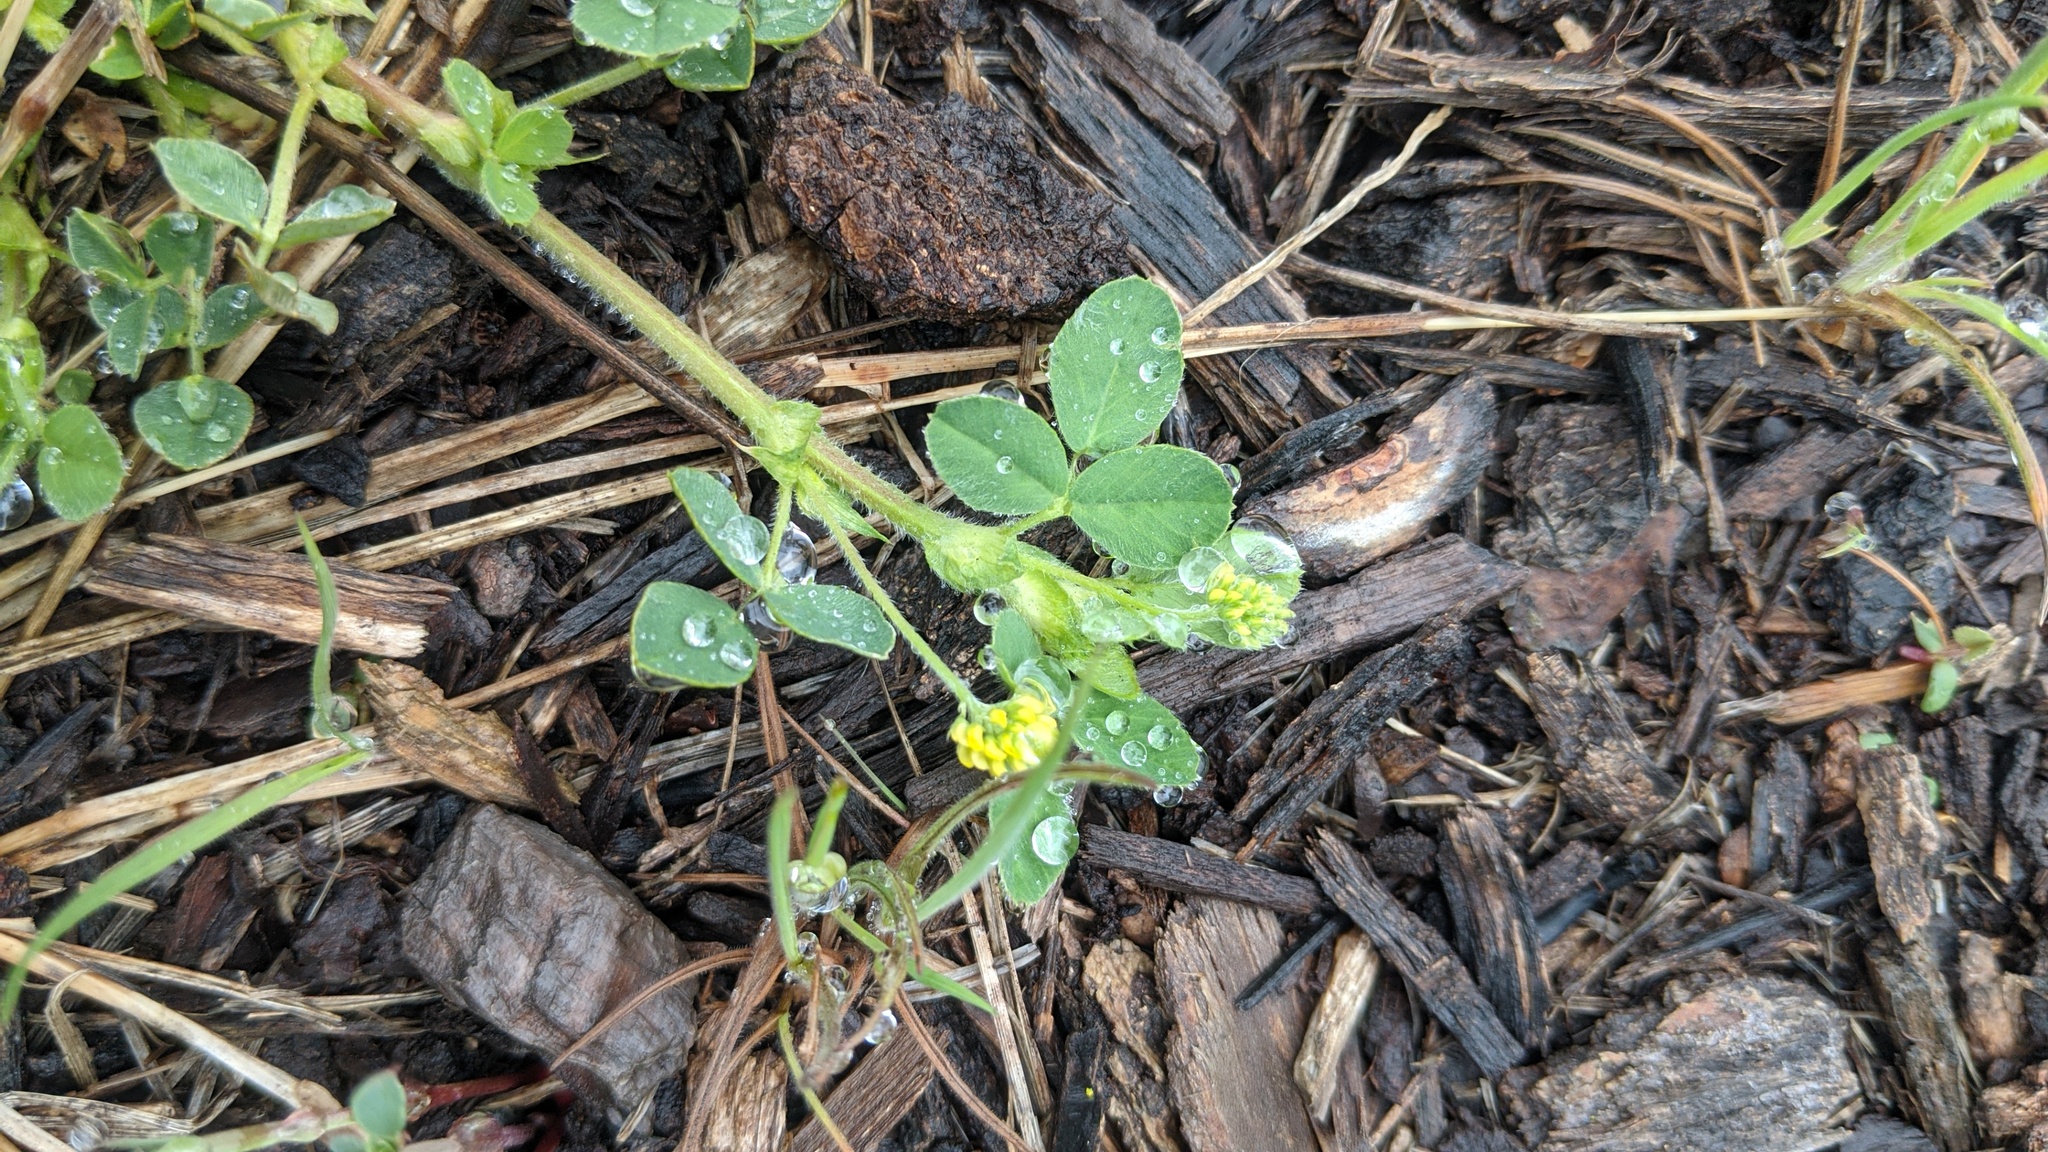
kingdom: Plantae
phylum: Tracheophyta
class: Magnoliopsida
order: Fabales
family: Fabaceae
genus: Medicago
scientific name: Medicago lupulina
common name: Black medick
